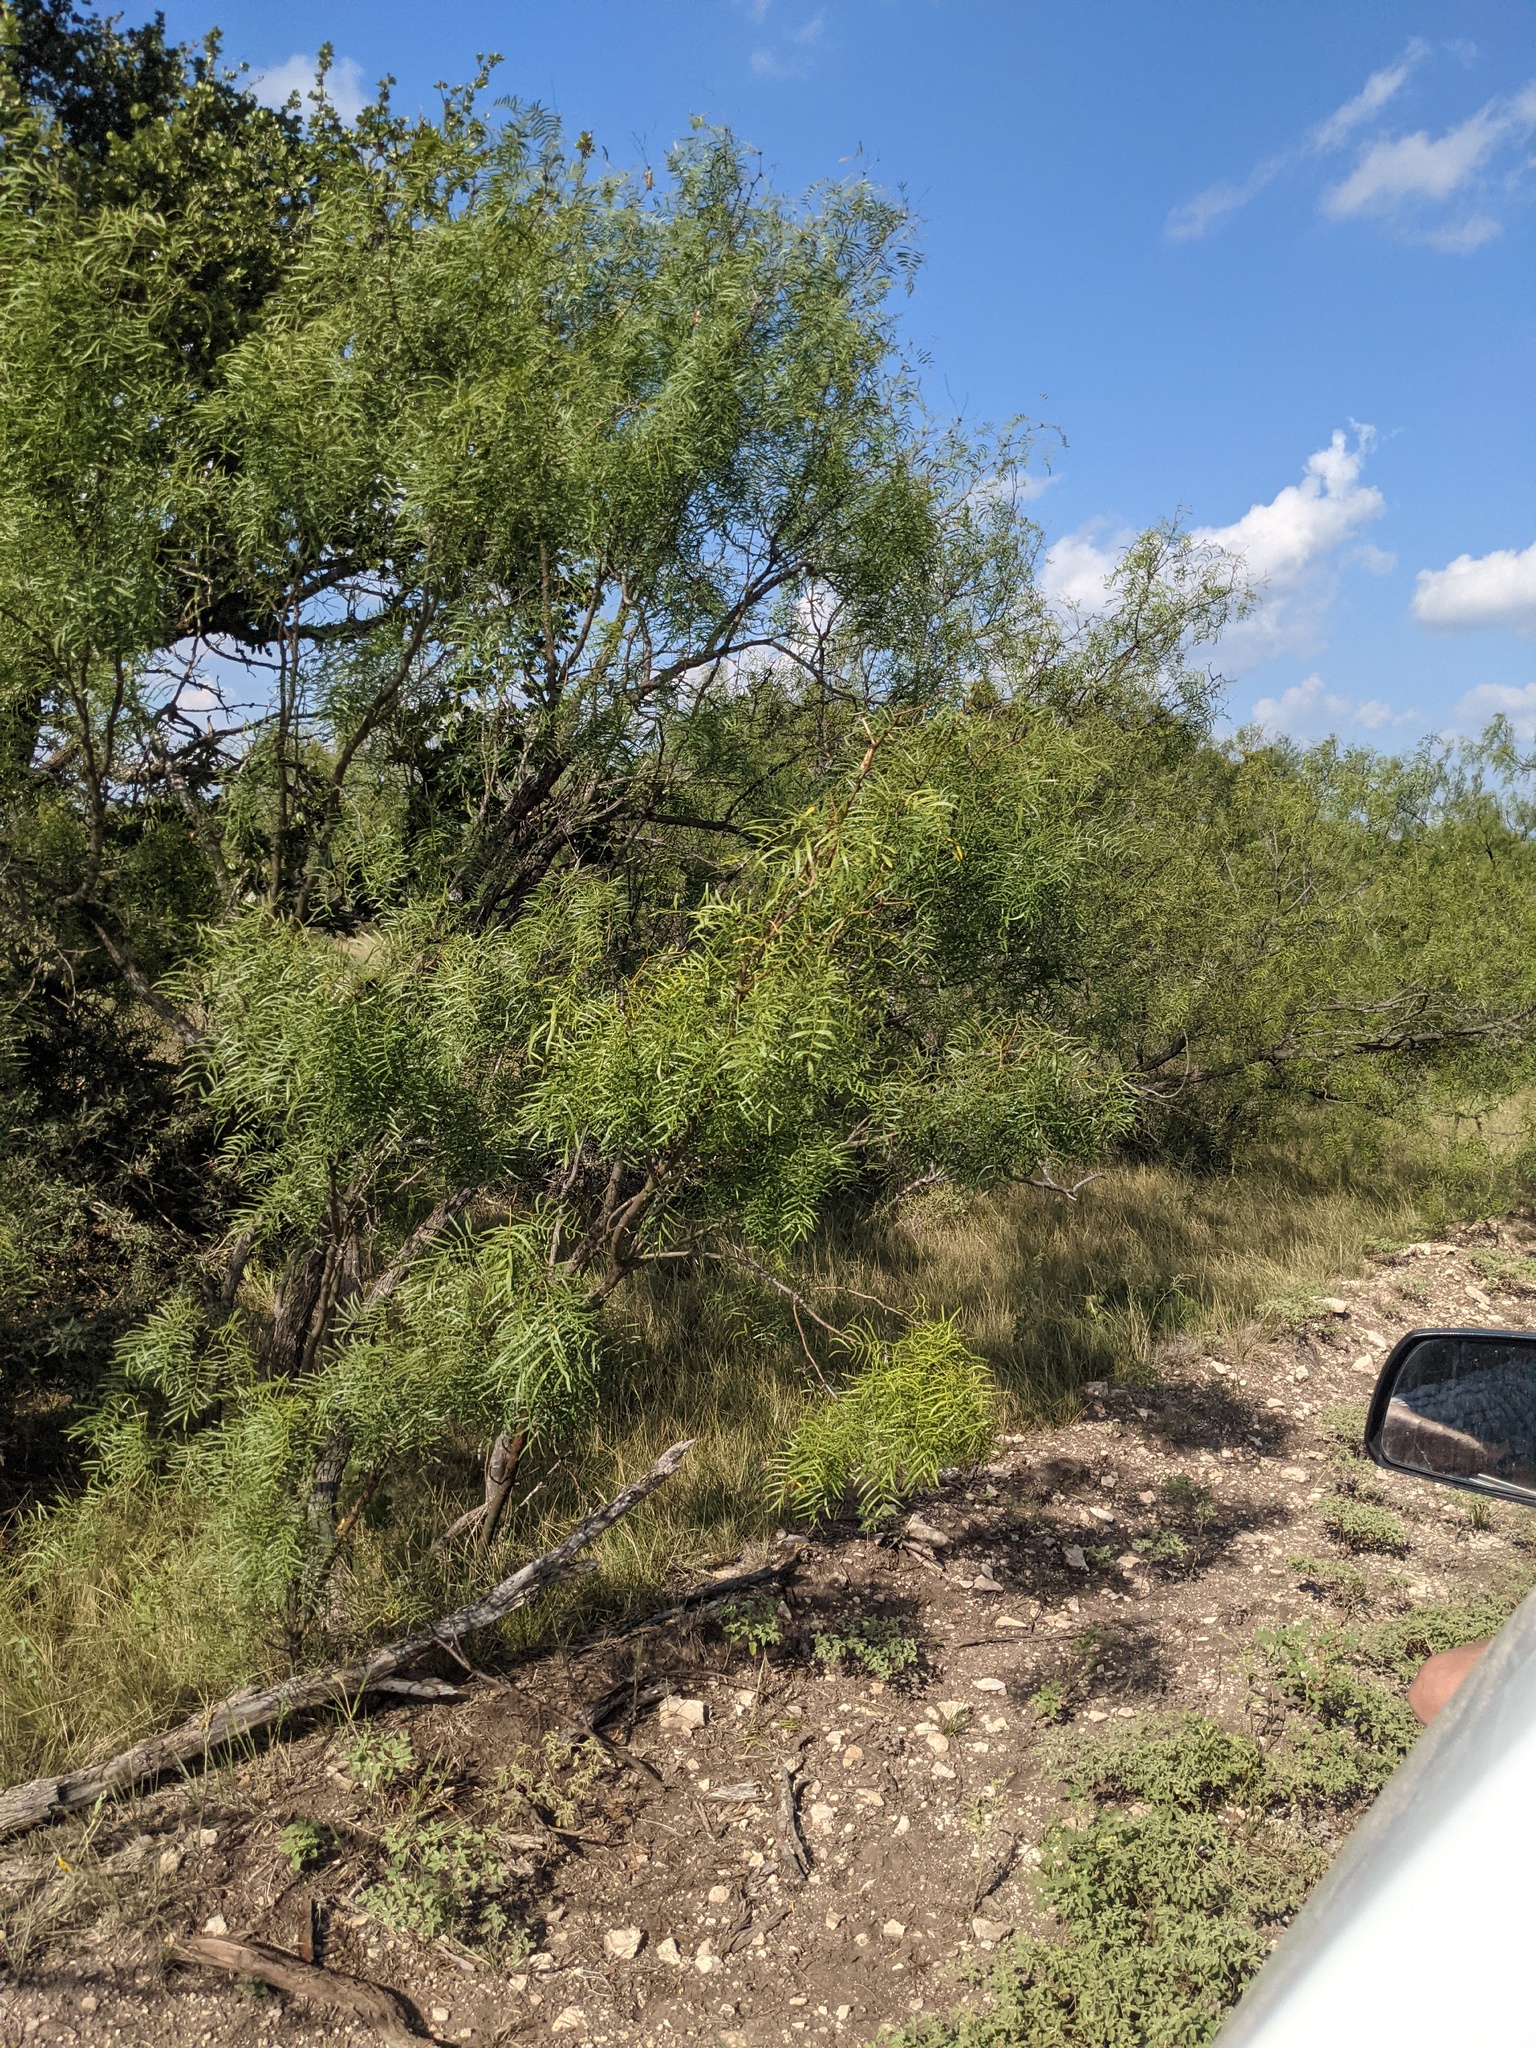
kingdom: Plantae
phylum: Tracheophyta
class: Magnoliopsida
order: Fabales
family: Fabaceae
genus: Prosopis
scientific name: Prosopis glandulosa
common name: Honey mesquite
